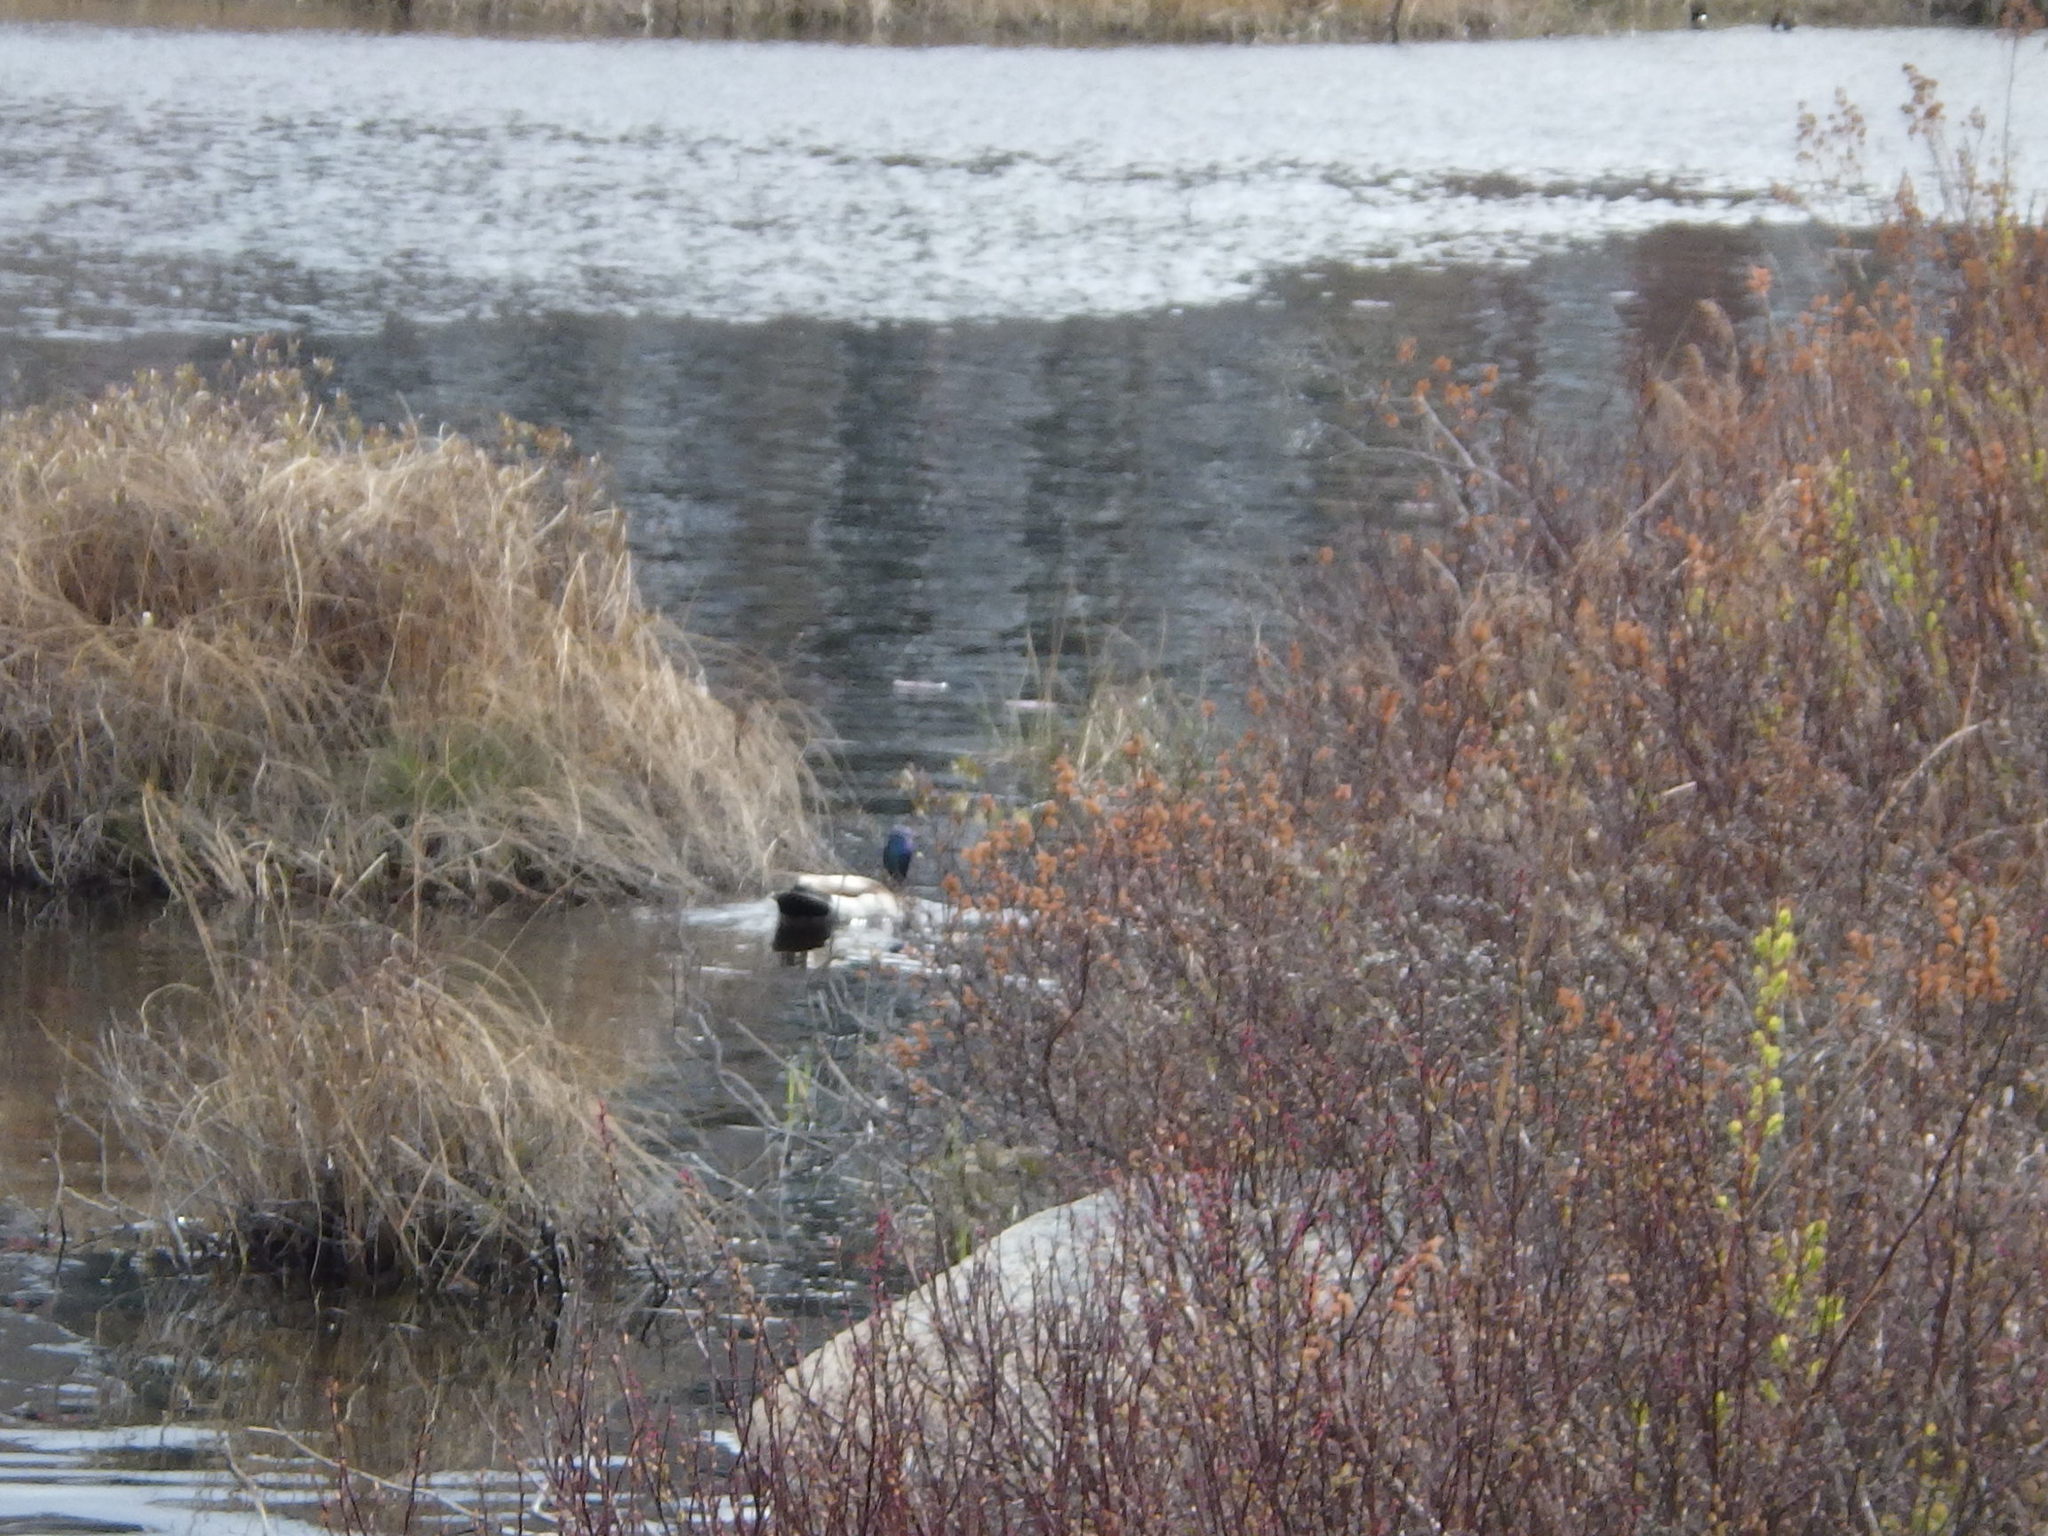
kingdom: Animalia
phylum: Chordata
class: Aves
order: Anseriformes
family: Anatidae
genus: Anas
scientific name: Anas platyrhynchos
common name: Mallard
